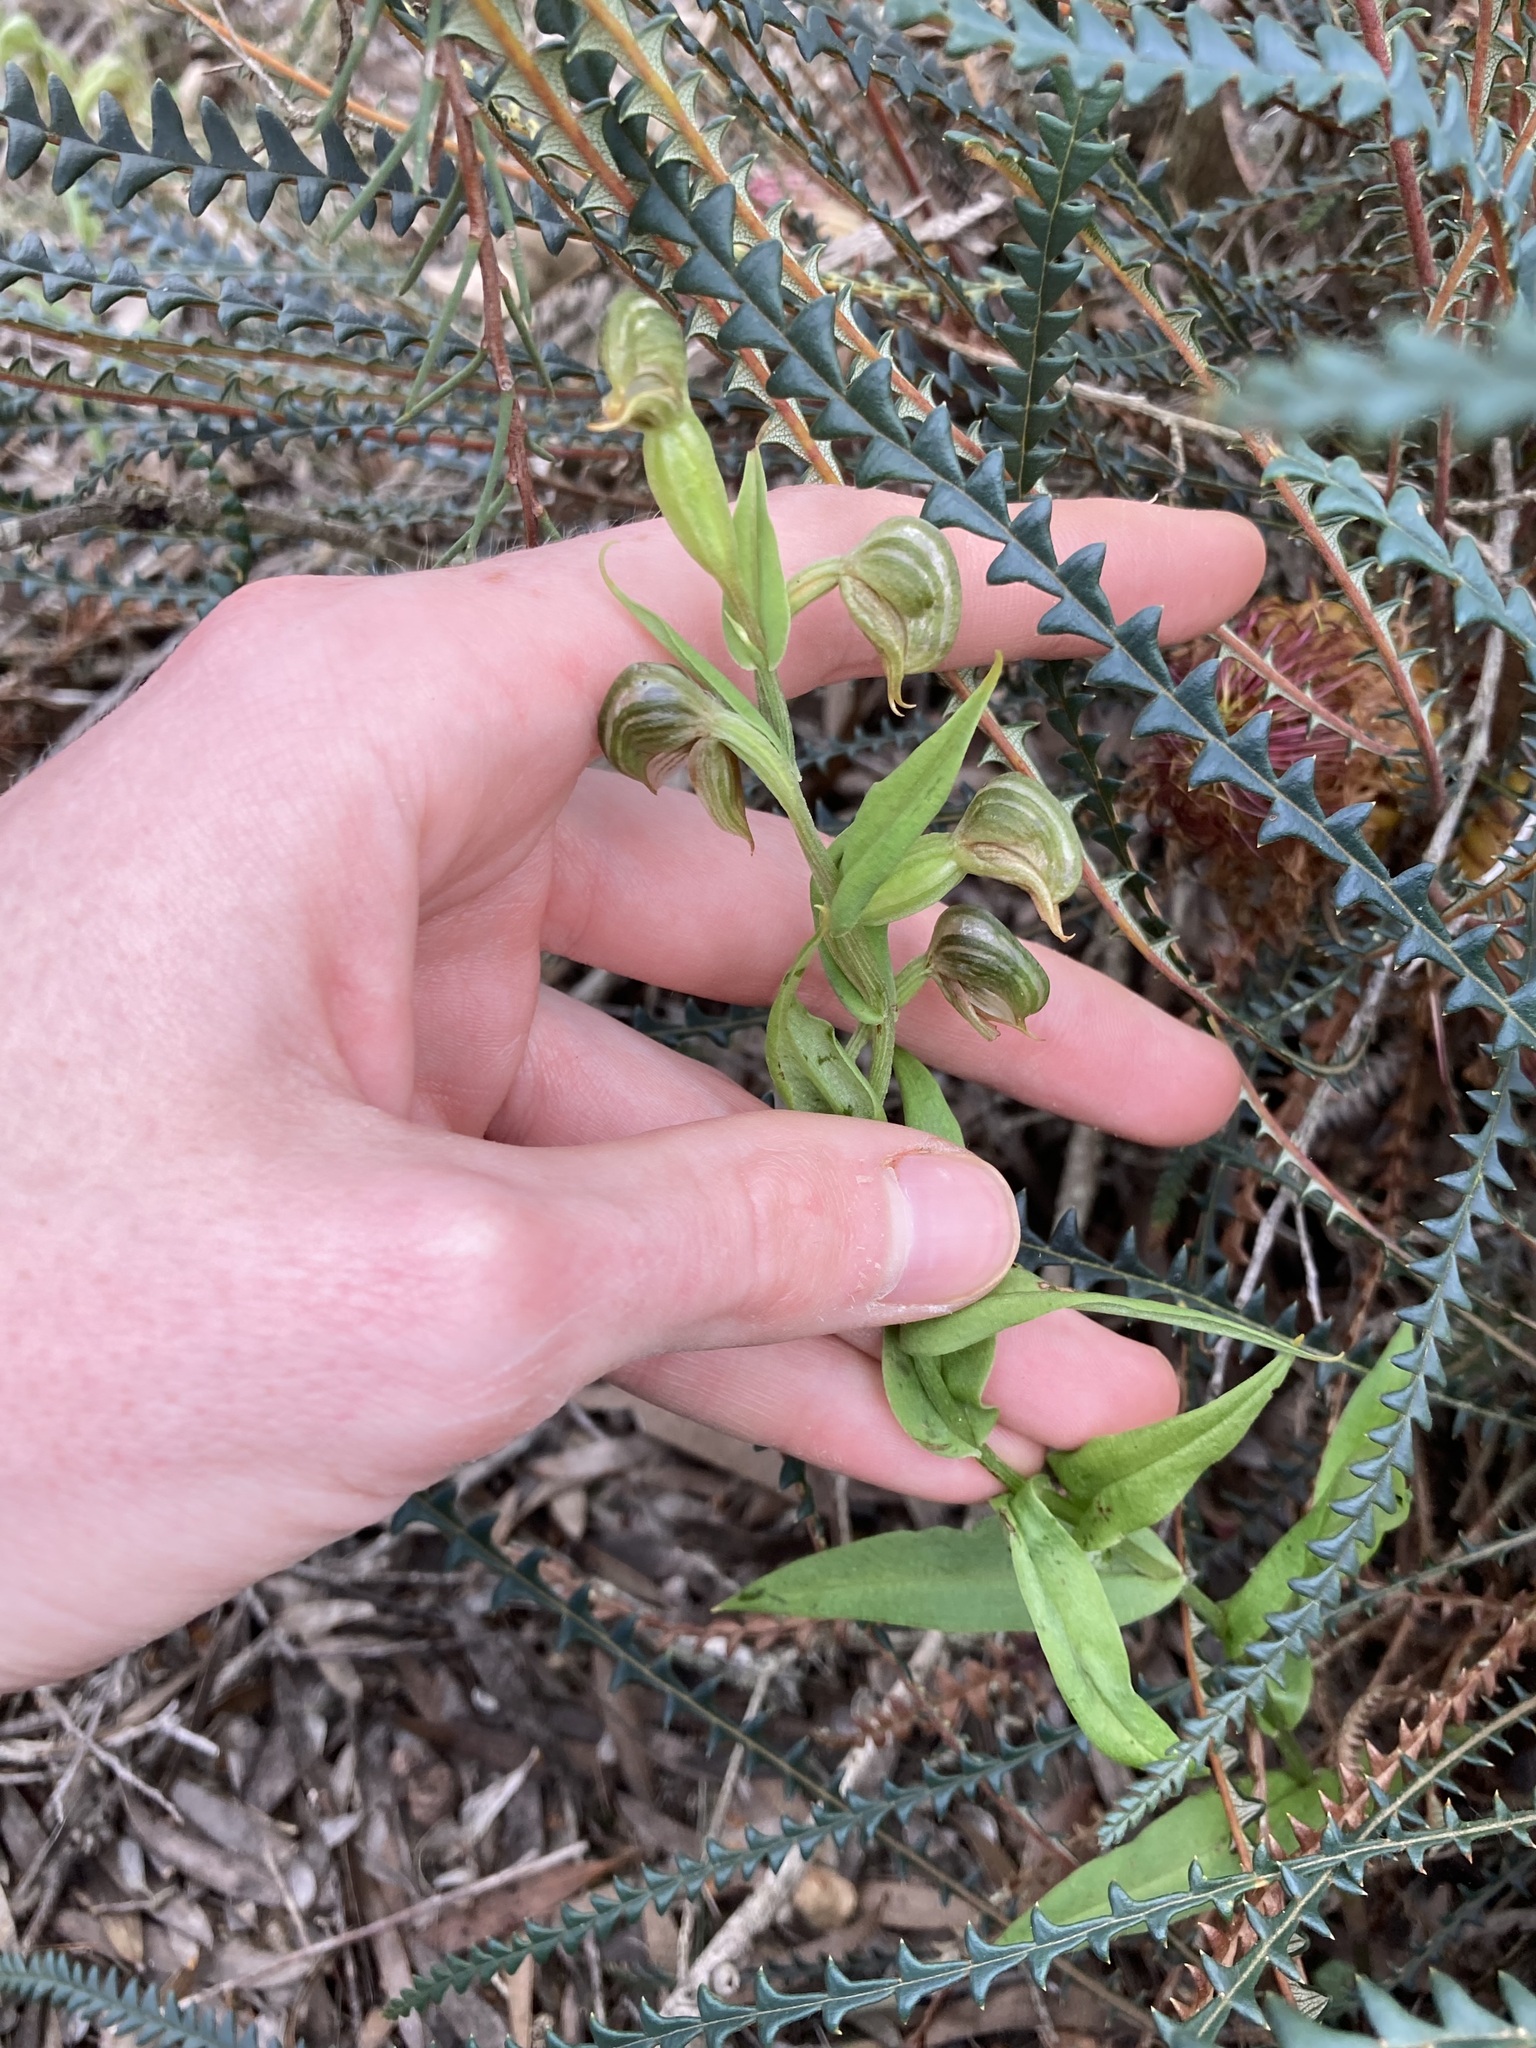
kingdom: Plantae
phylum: Tracheophyta
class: Liliopsida
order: Asparagales
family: Orchidaceae
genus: Pterostylis
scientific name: Pterostylis vittata
